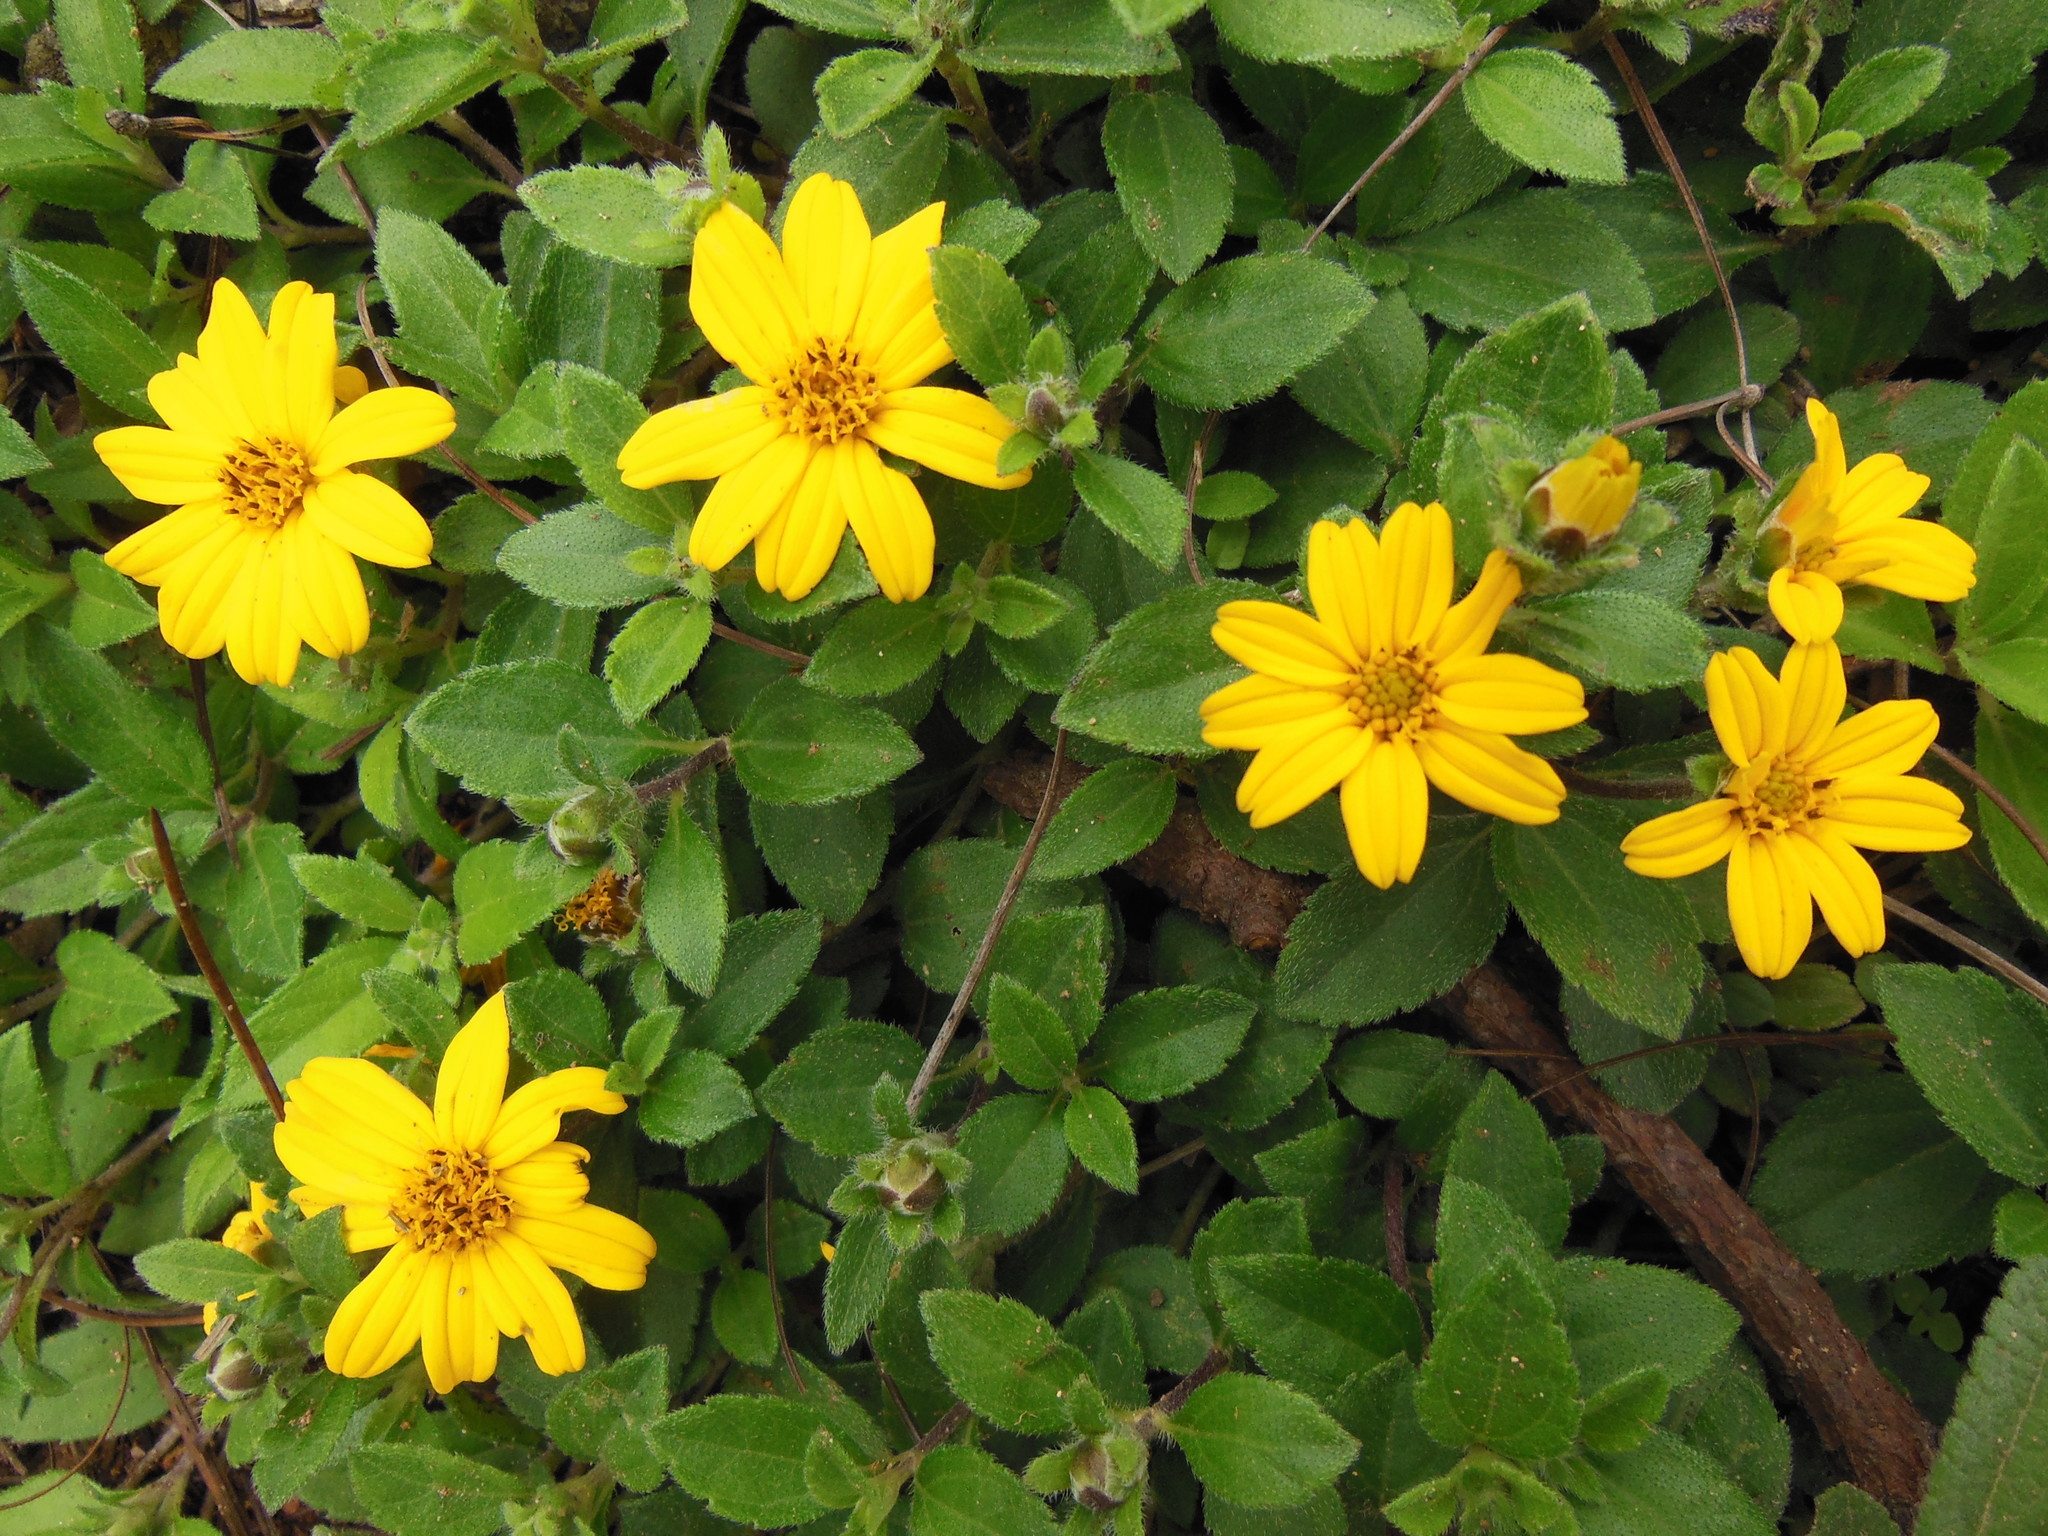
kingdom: Plantae
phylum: Tracheophyta
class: Magnoliopsida
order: Asterales
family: Asteraceae
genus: Wedelia
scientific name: Wedelia mexicana
